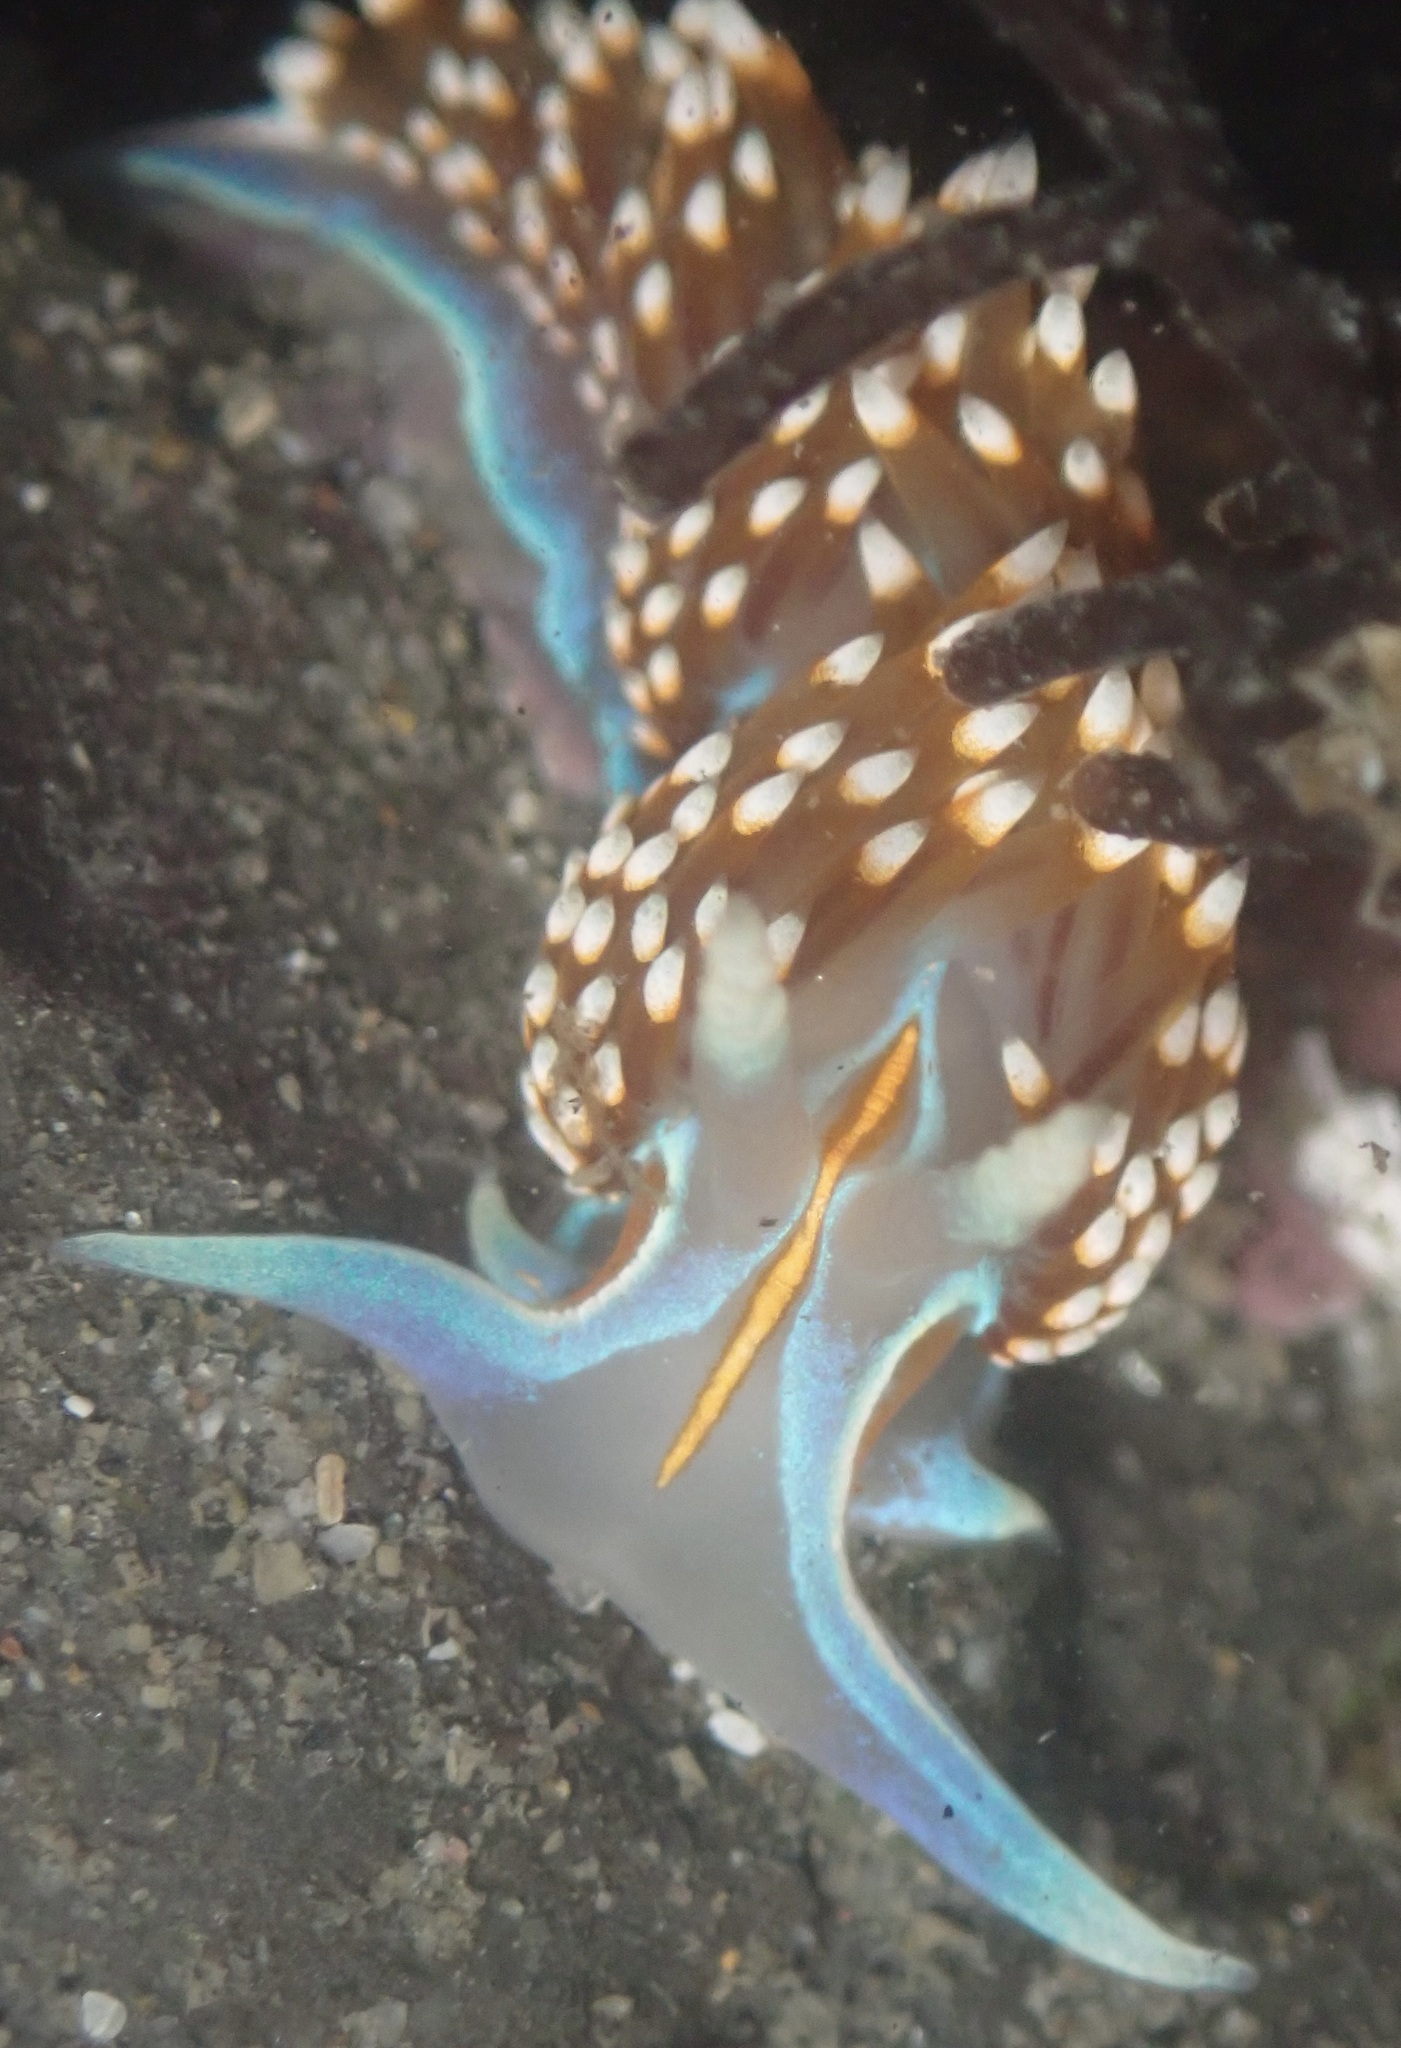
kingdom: Animalia
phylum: Mollusca
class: Gastropoda
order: Nudibranchia
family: Myrrhinidae
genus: Hermissenda
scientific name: Hermissenda opalescens
